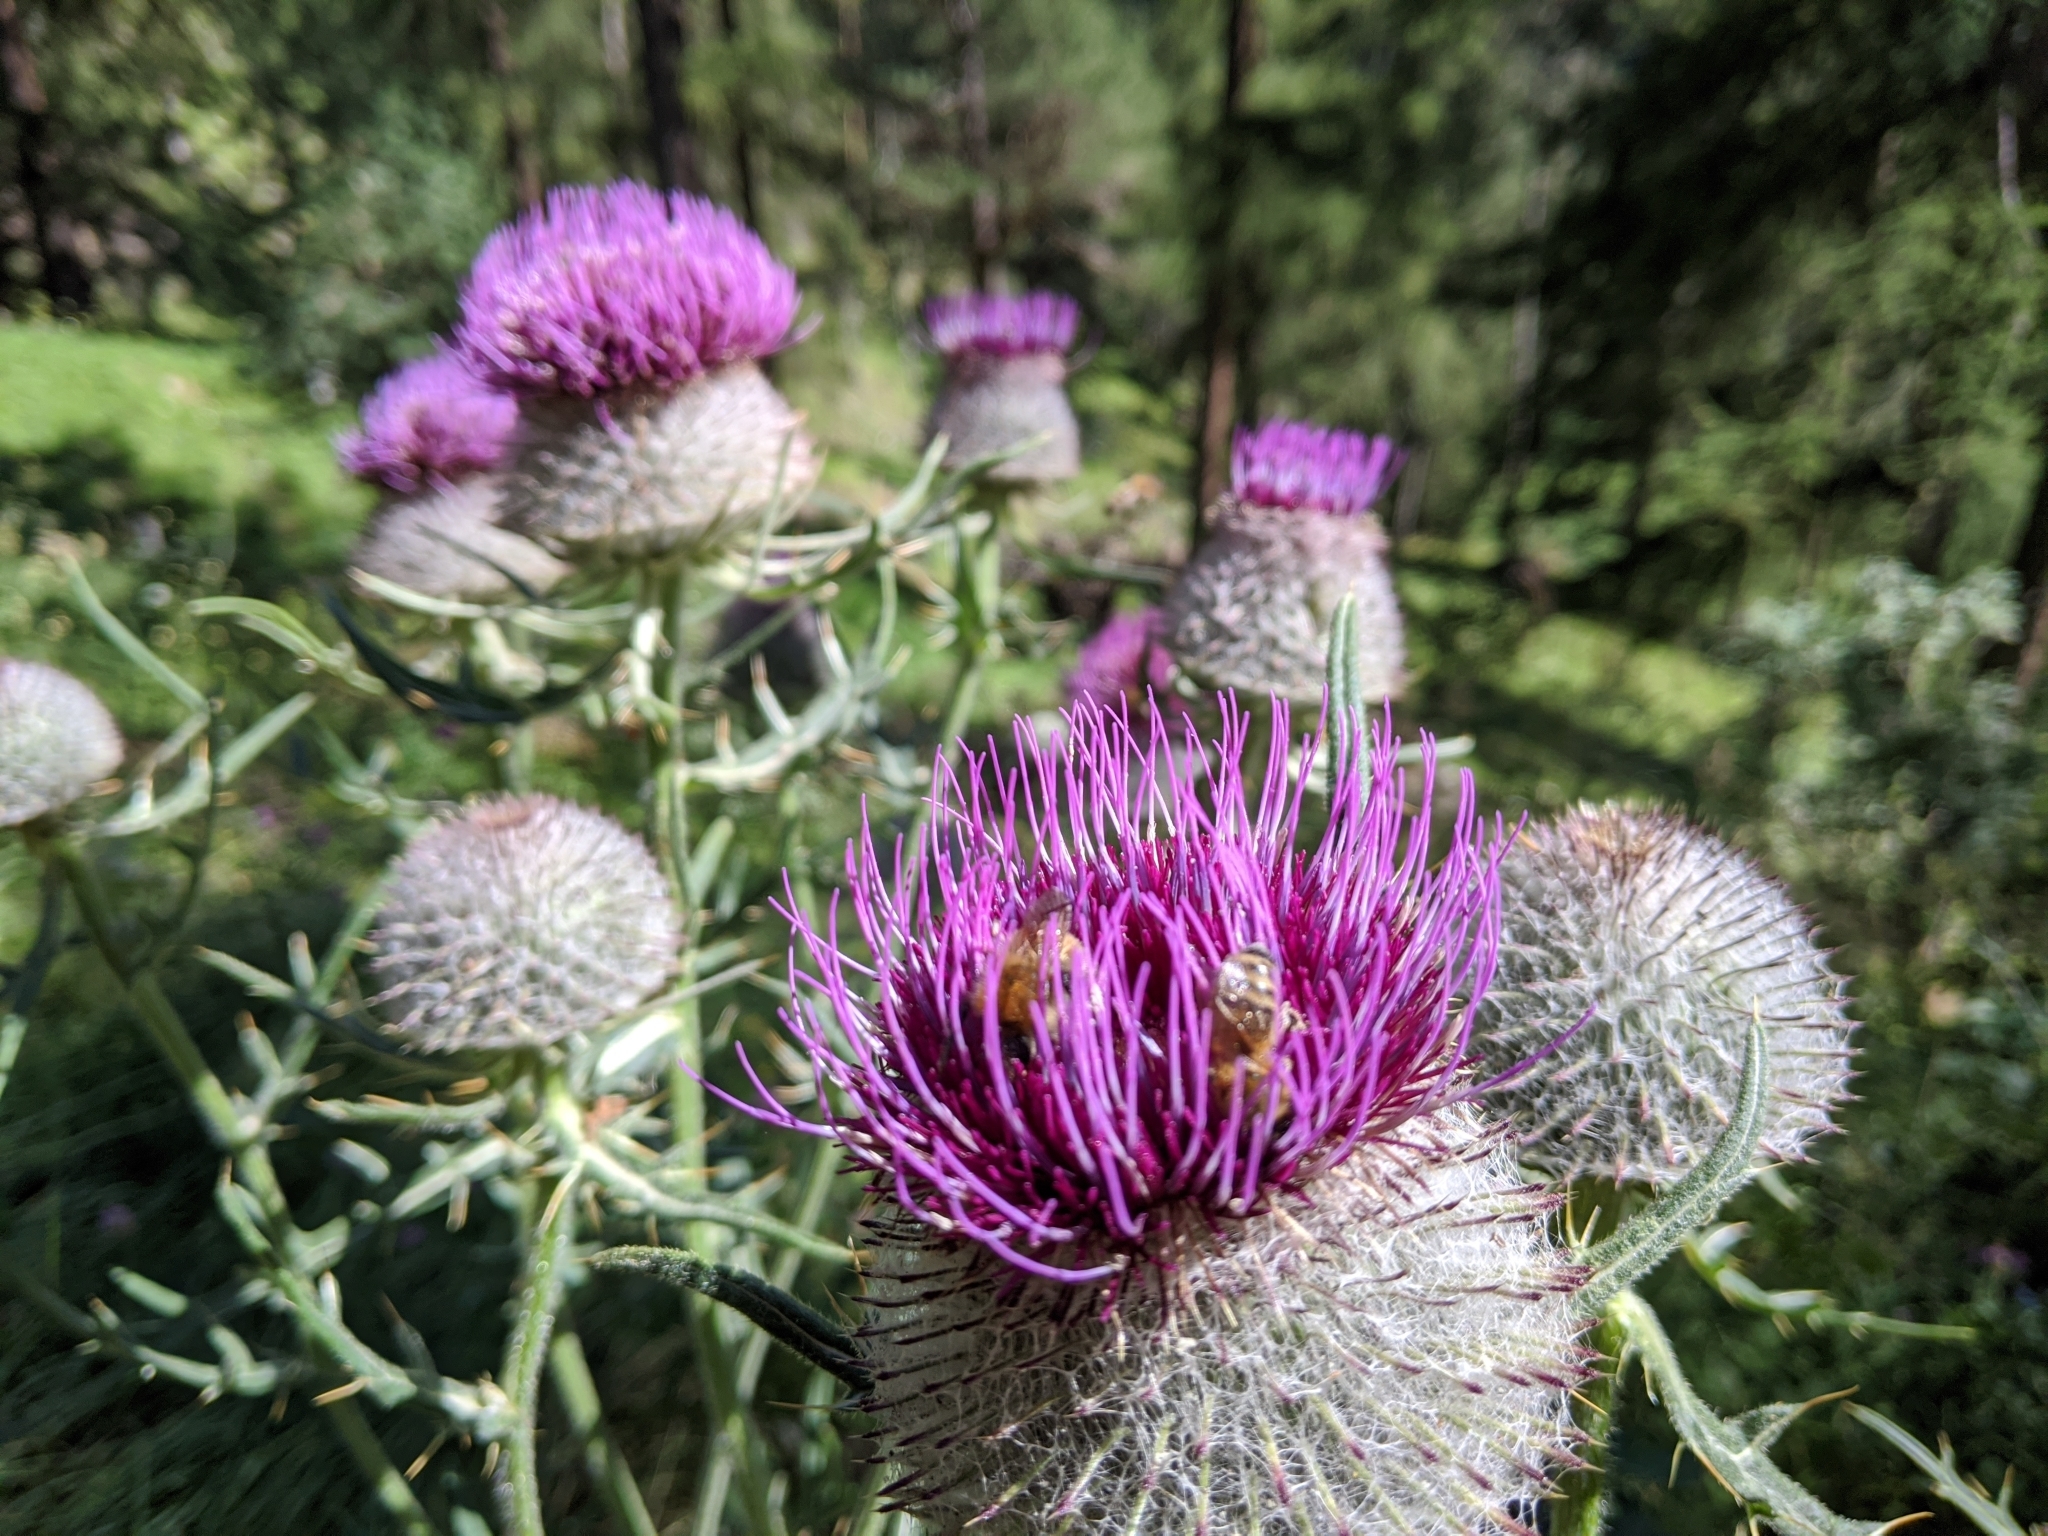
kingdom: Plantae
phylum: Tracheophyta
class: Magnoliopsida
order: Asterales
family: Asteraceae
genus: Lophiolepis
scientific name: Lophiolepis eriophora
